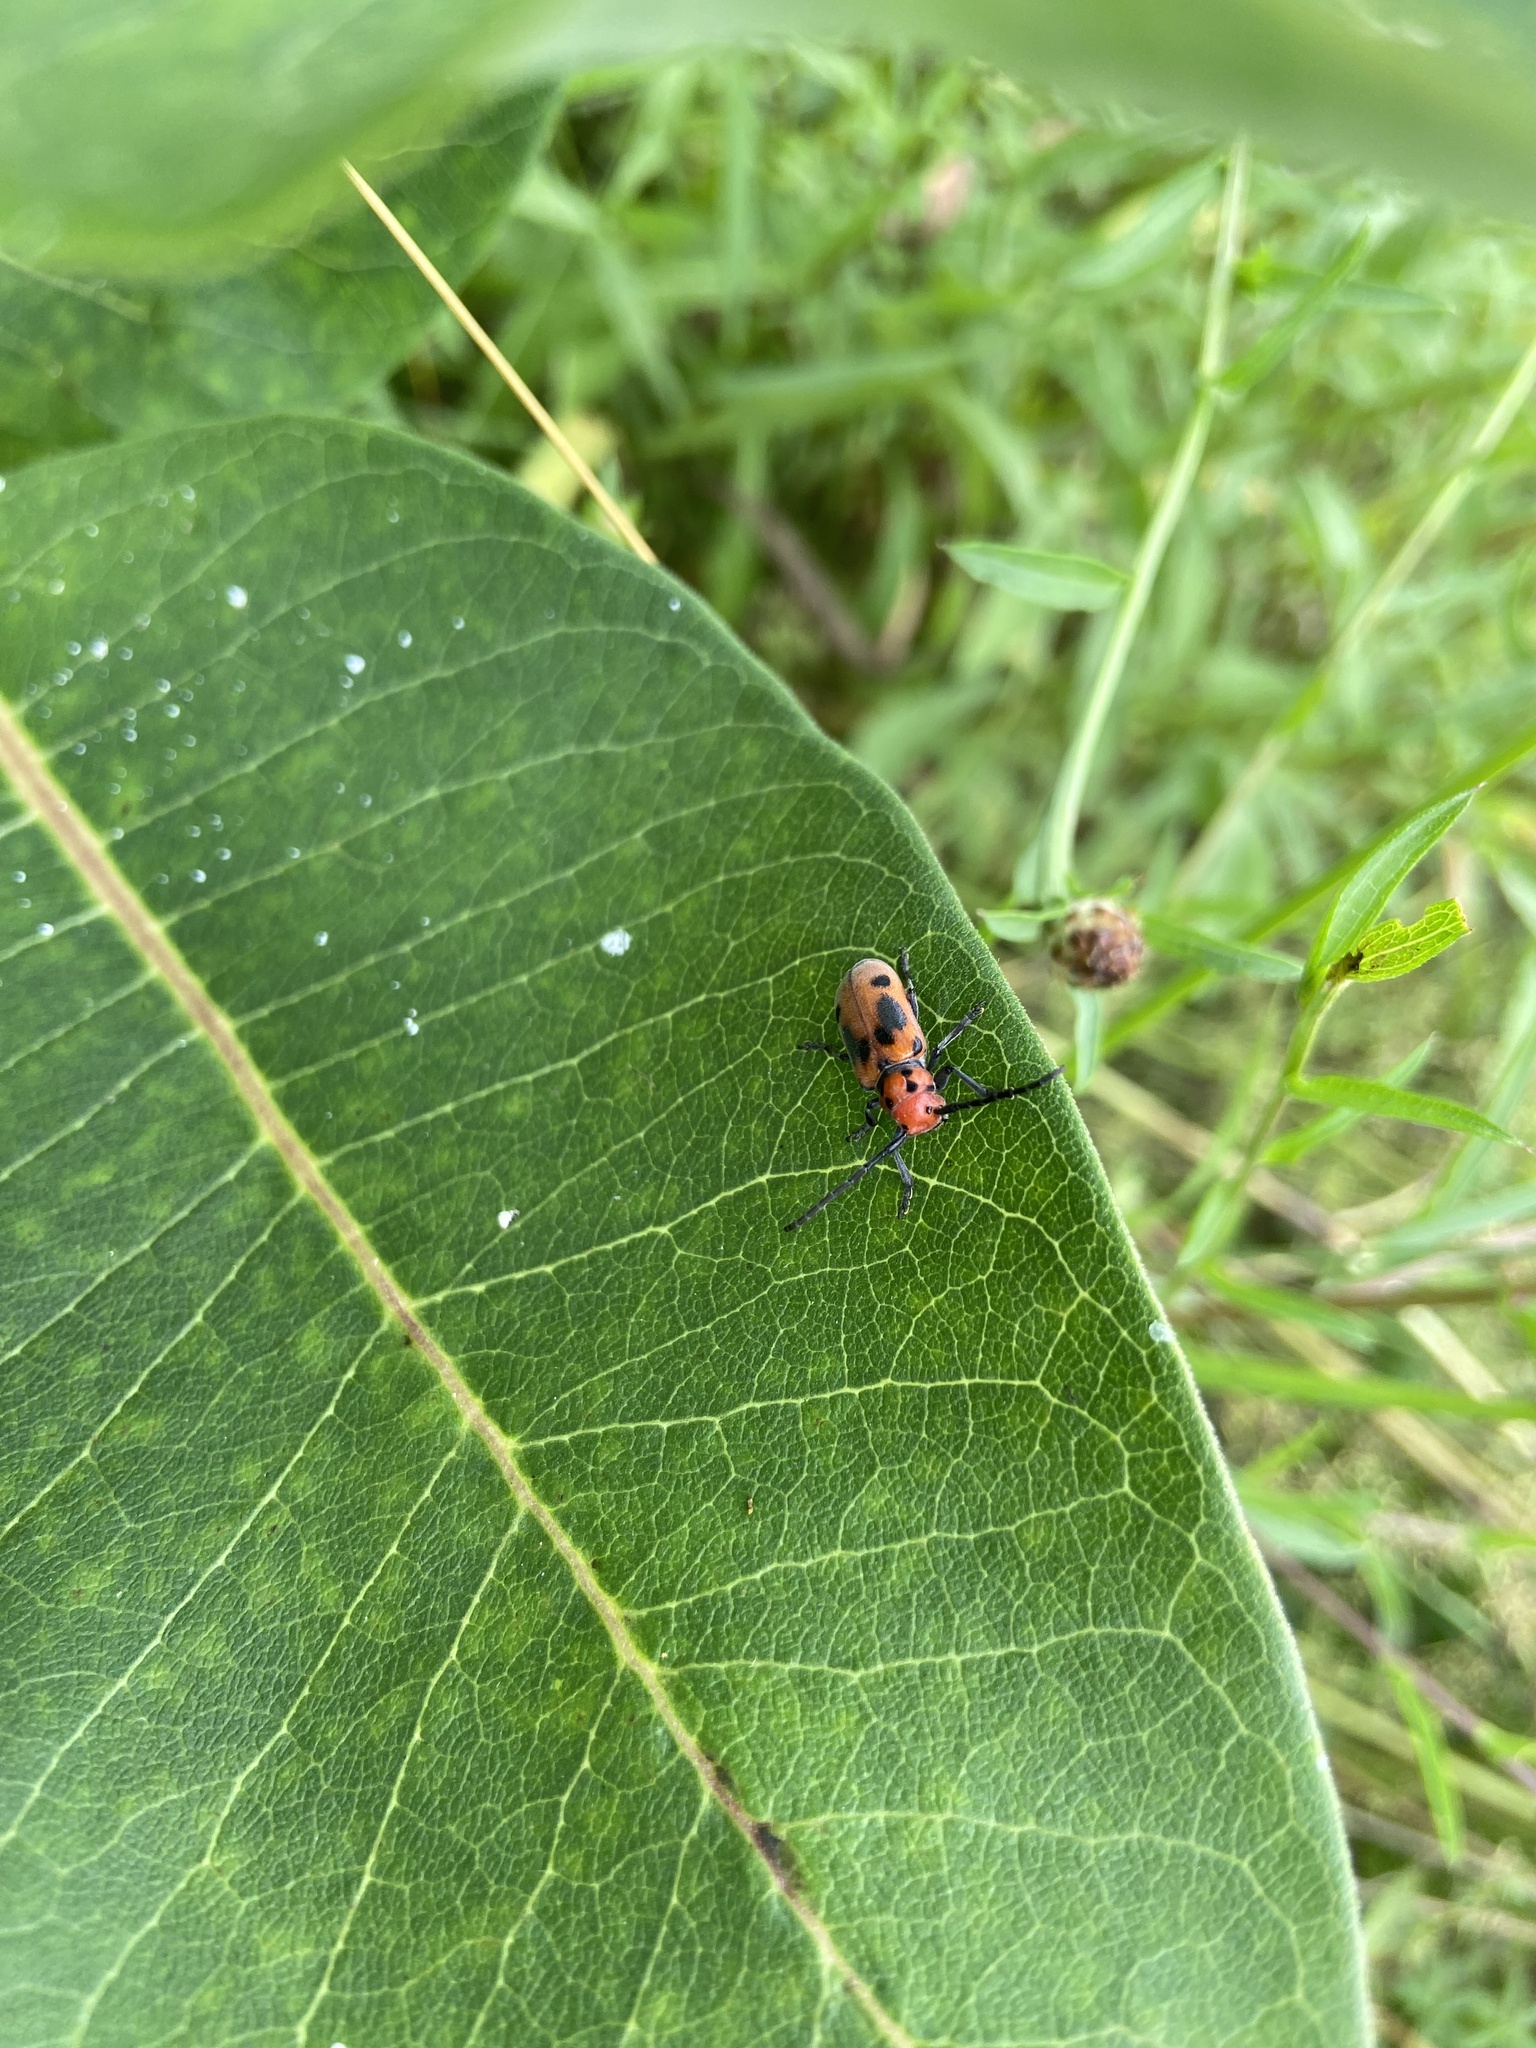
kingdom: Animalia
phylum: Arthropoda
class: Insecta
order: Coleoptera
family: Cerambycidae
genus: Tetraopes
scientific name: Tetraopes tetrophthalmus
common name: Red milkweed beetle
